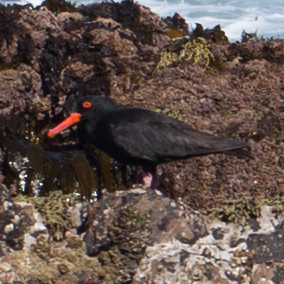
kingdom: Animalia
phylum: Chordata
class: Aves
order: Charadriiformes
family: Haematopodidae
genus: Haematopus
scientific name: Haematopus fuliginosus
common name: Sooty oystercatcher
